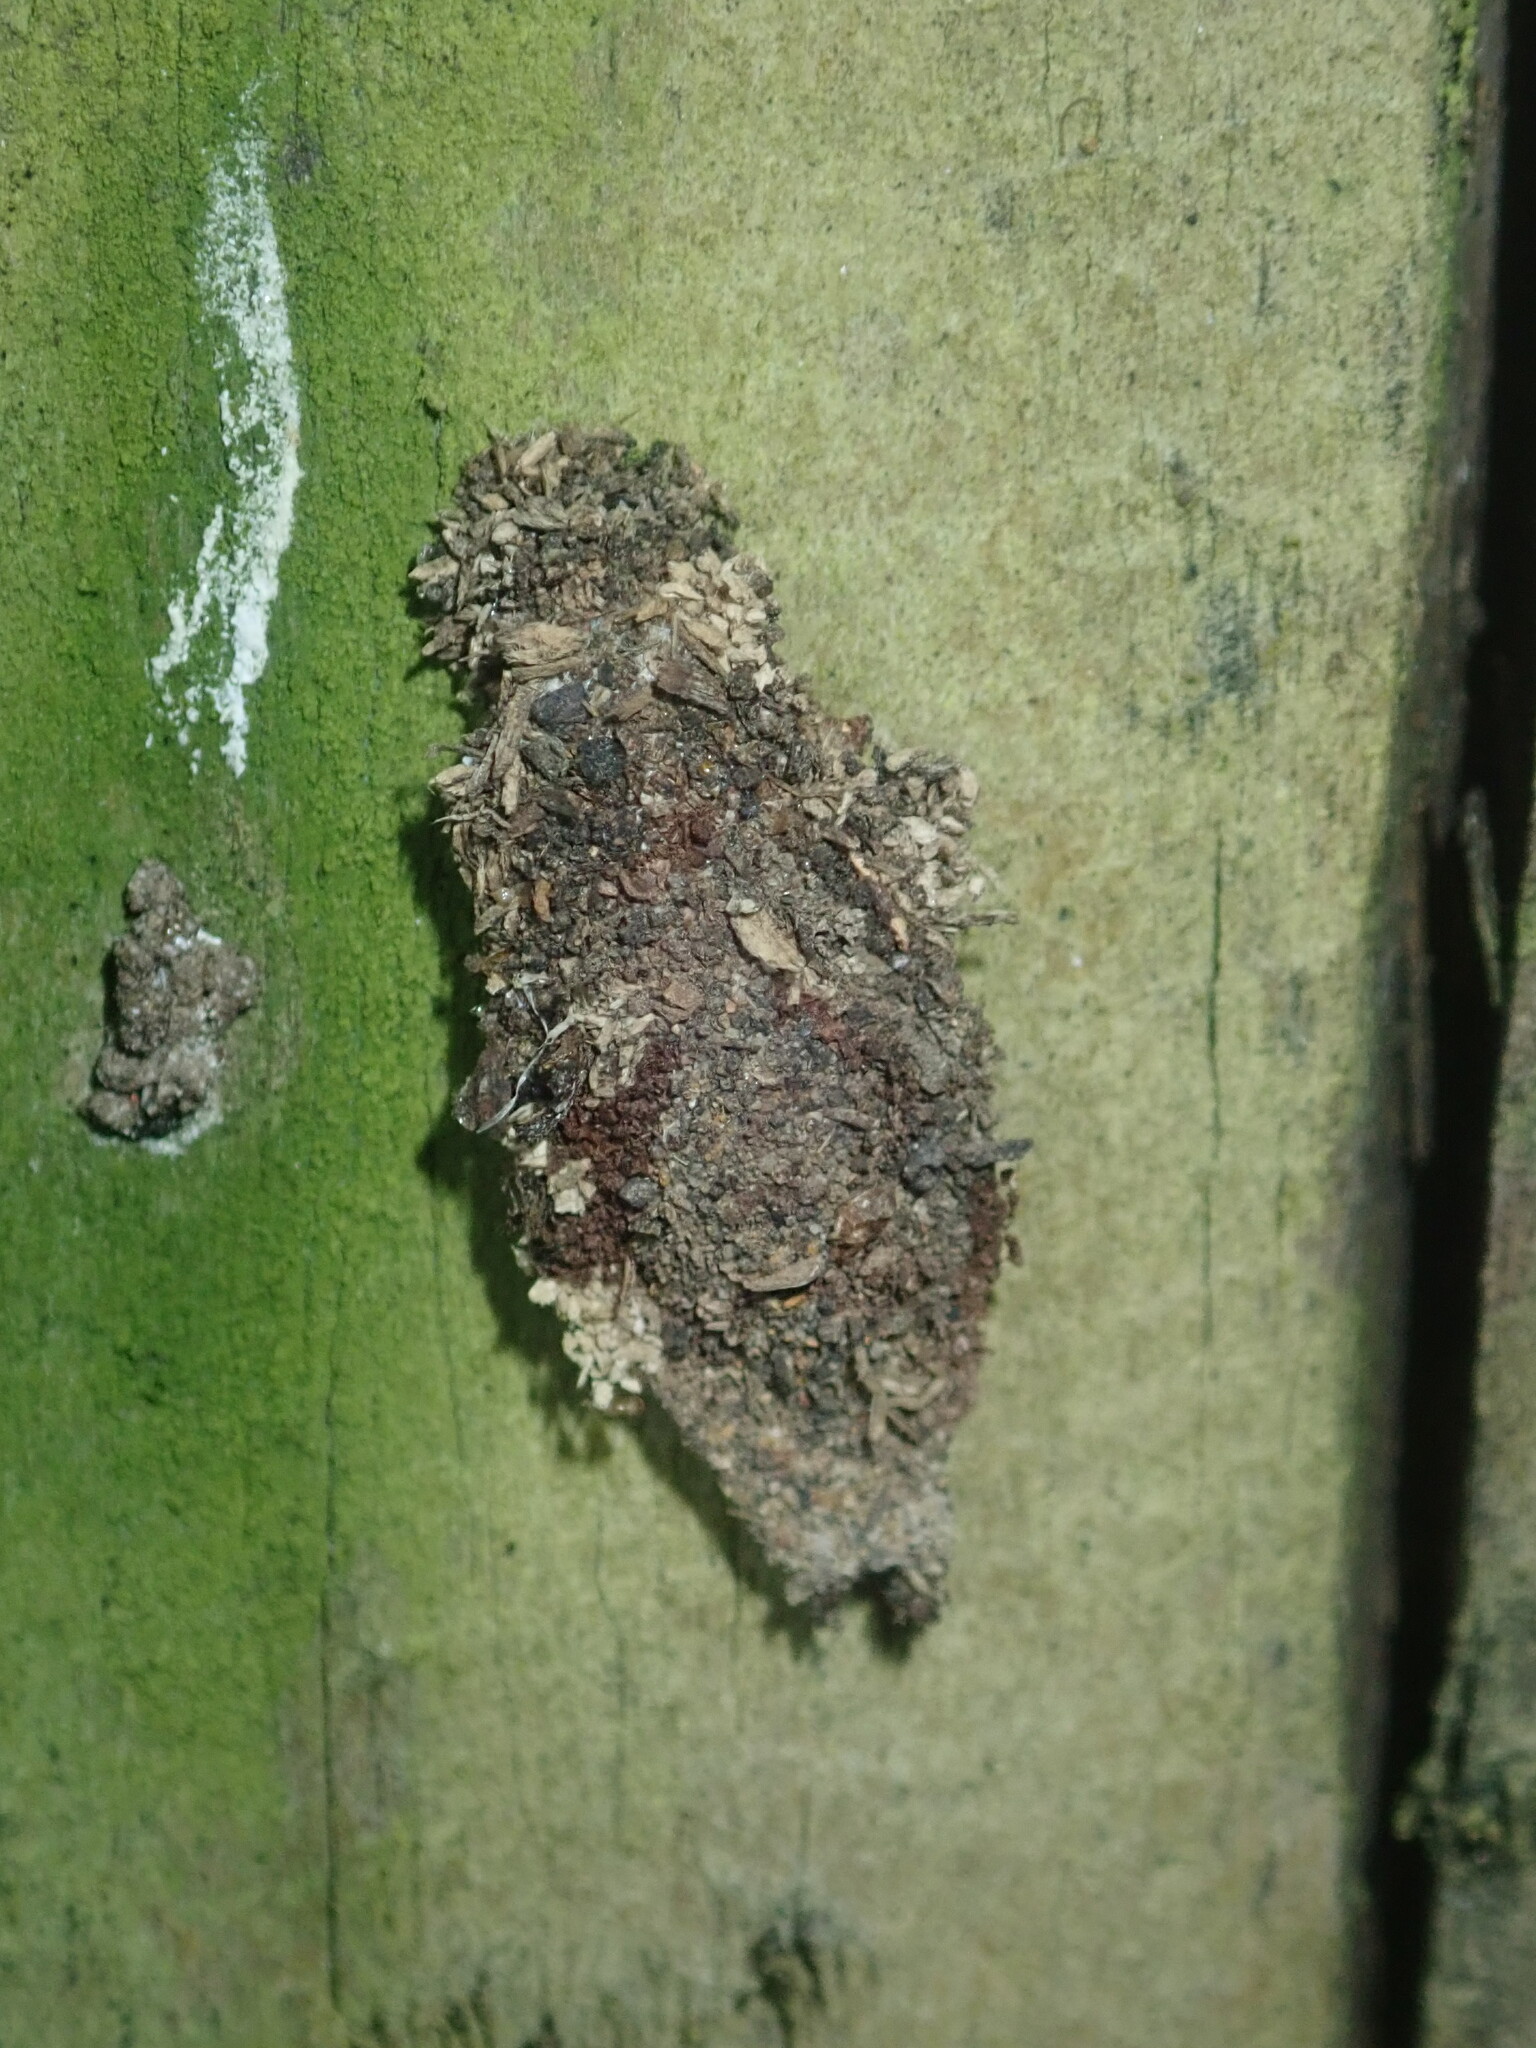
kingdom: Animalia
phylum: Arthropoda
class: Insecta
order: Lepidoptera
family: Psychidae
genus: Cebysa
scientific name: Cebysa leucotelus
